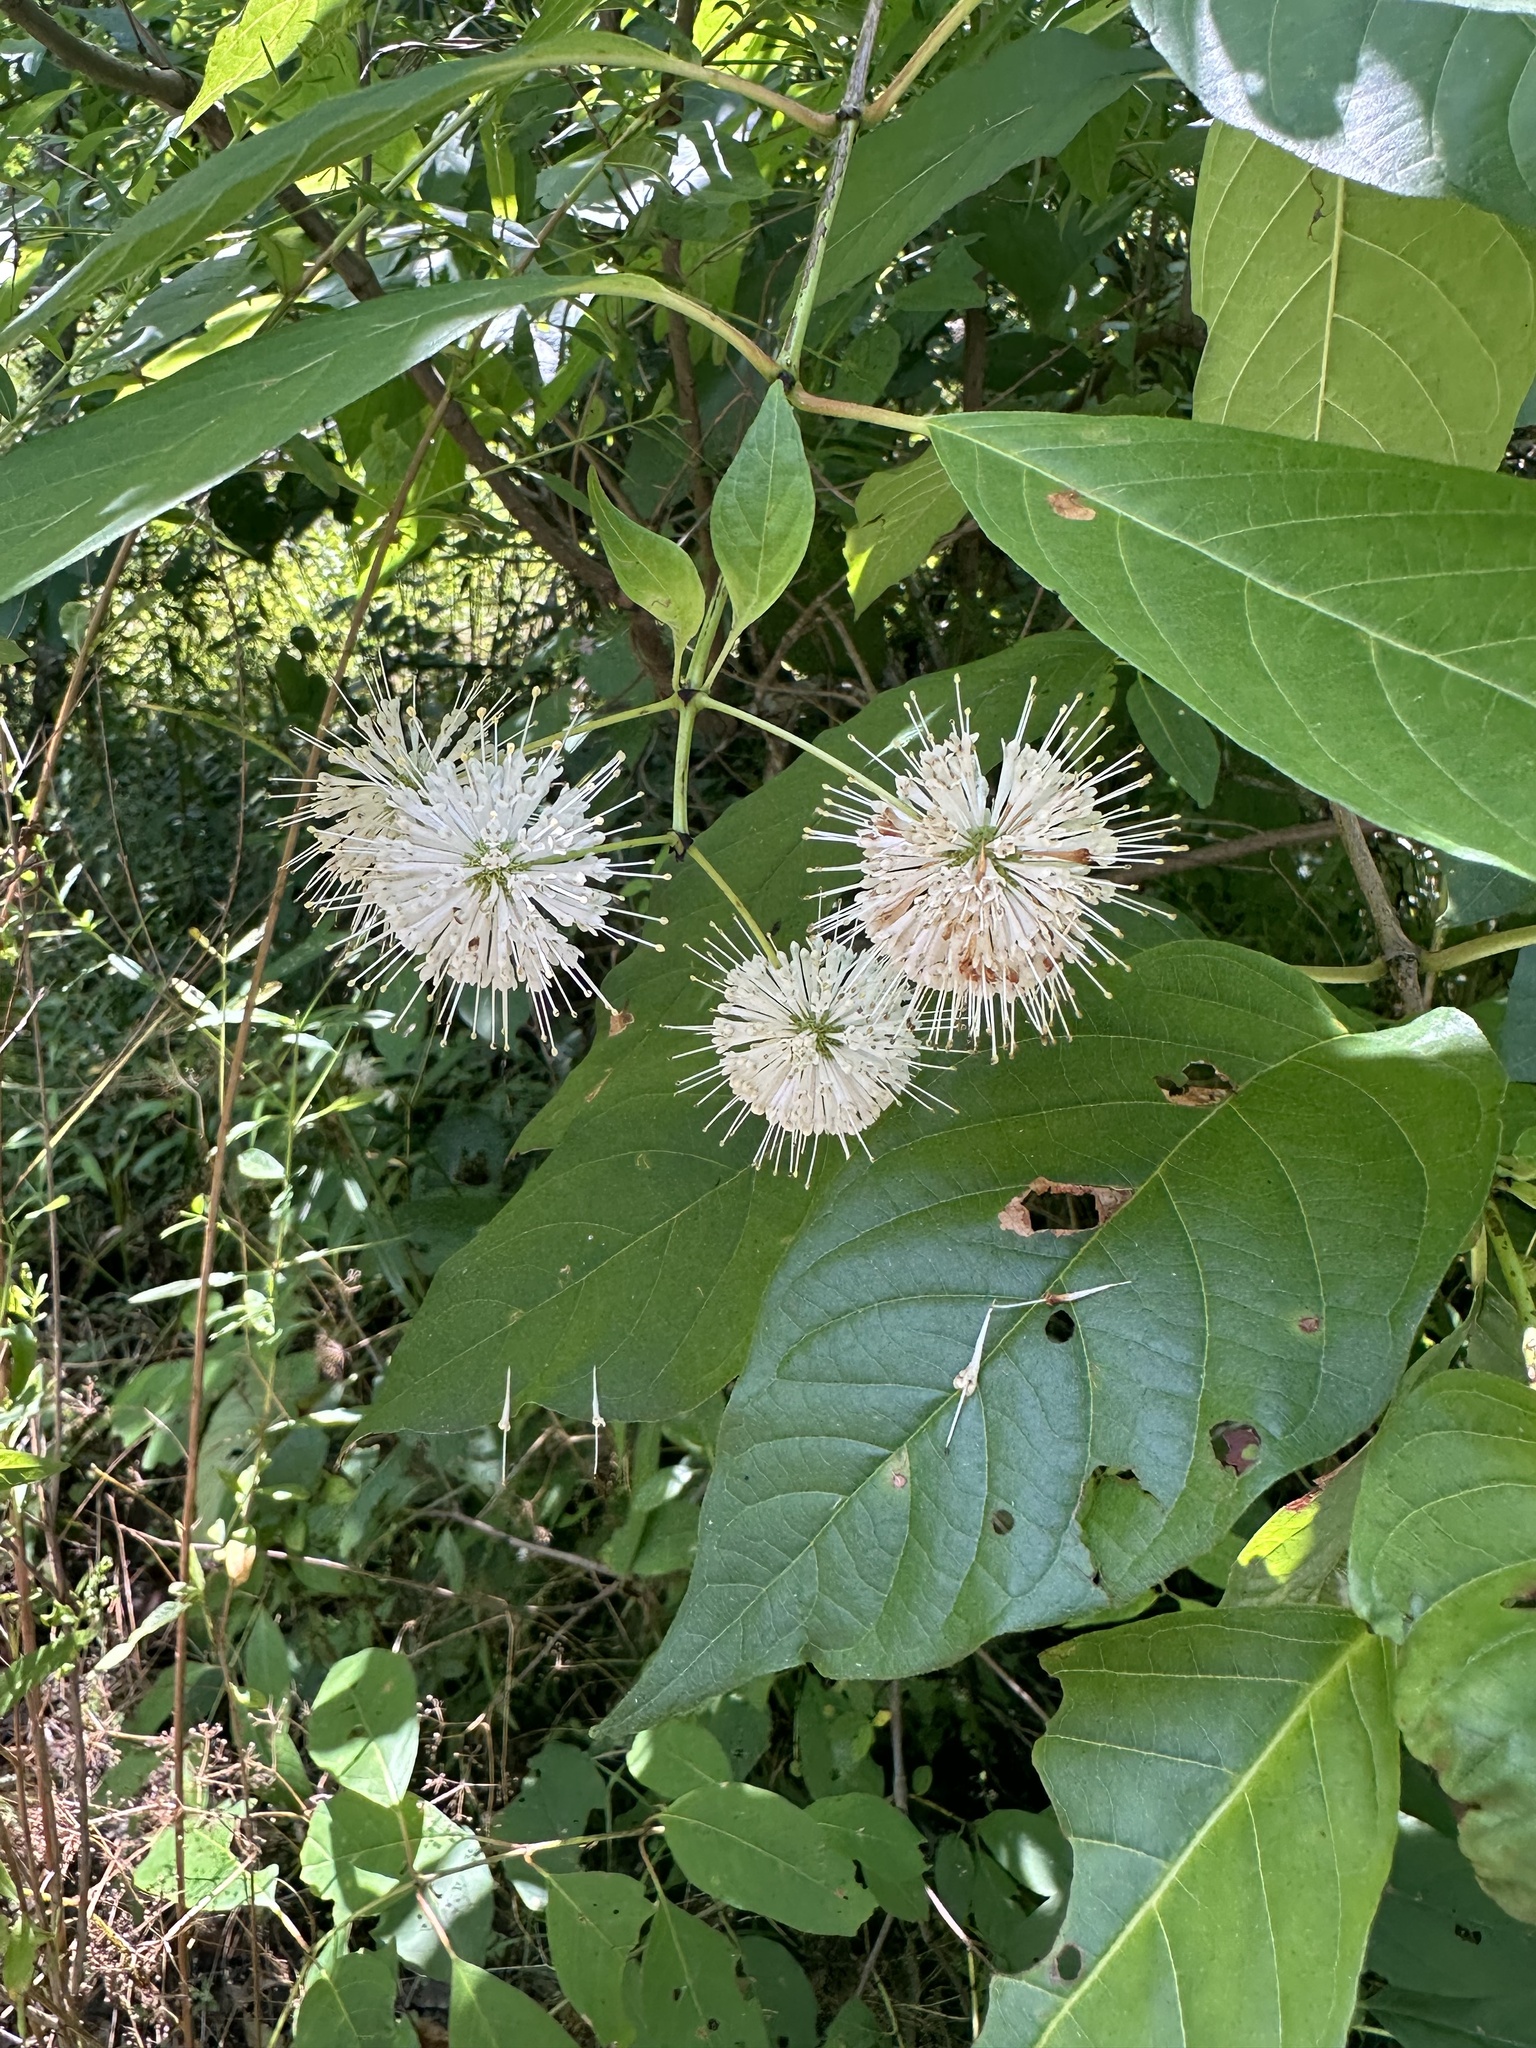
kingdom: Plantae
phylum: Tracheophyta
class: Magnoliopsida
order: Gentianales
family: Rubiaceae
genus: Cephalanthus
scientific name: Cephalanthus occidentalis
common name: Button-willow
